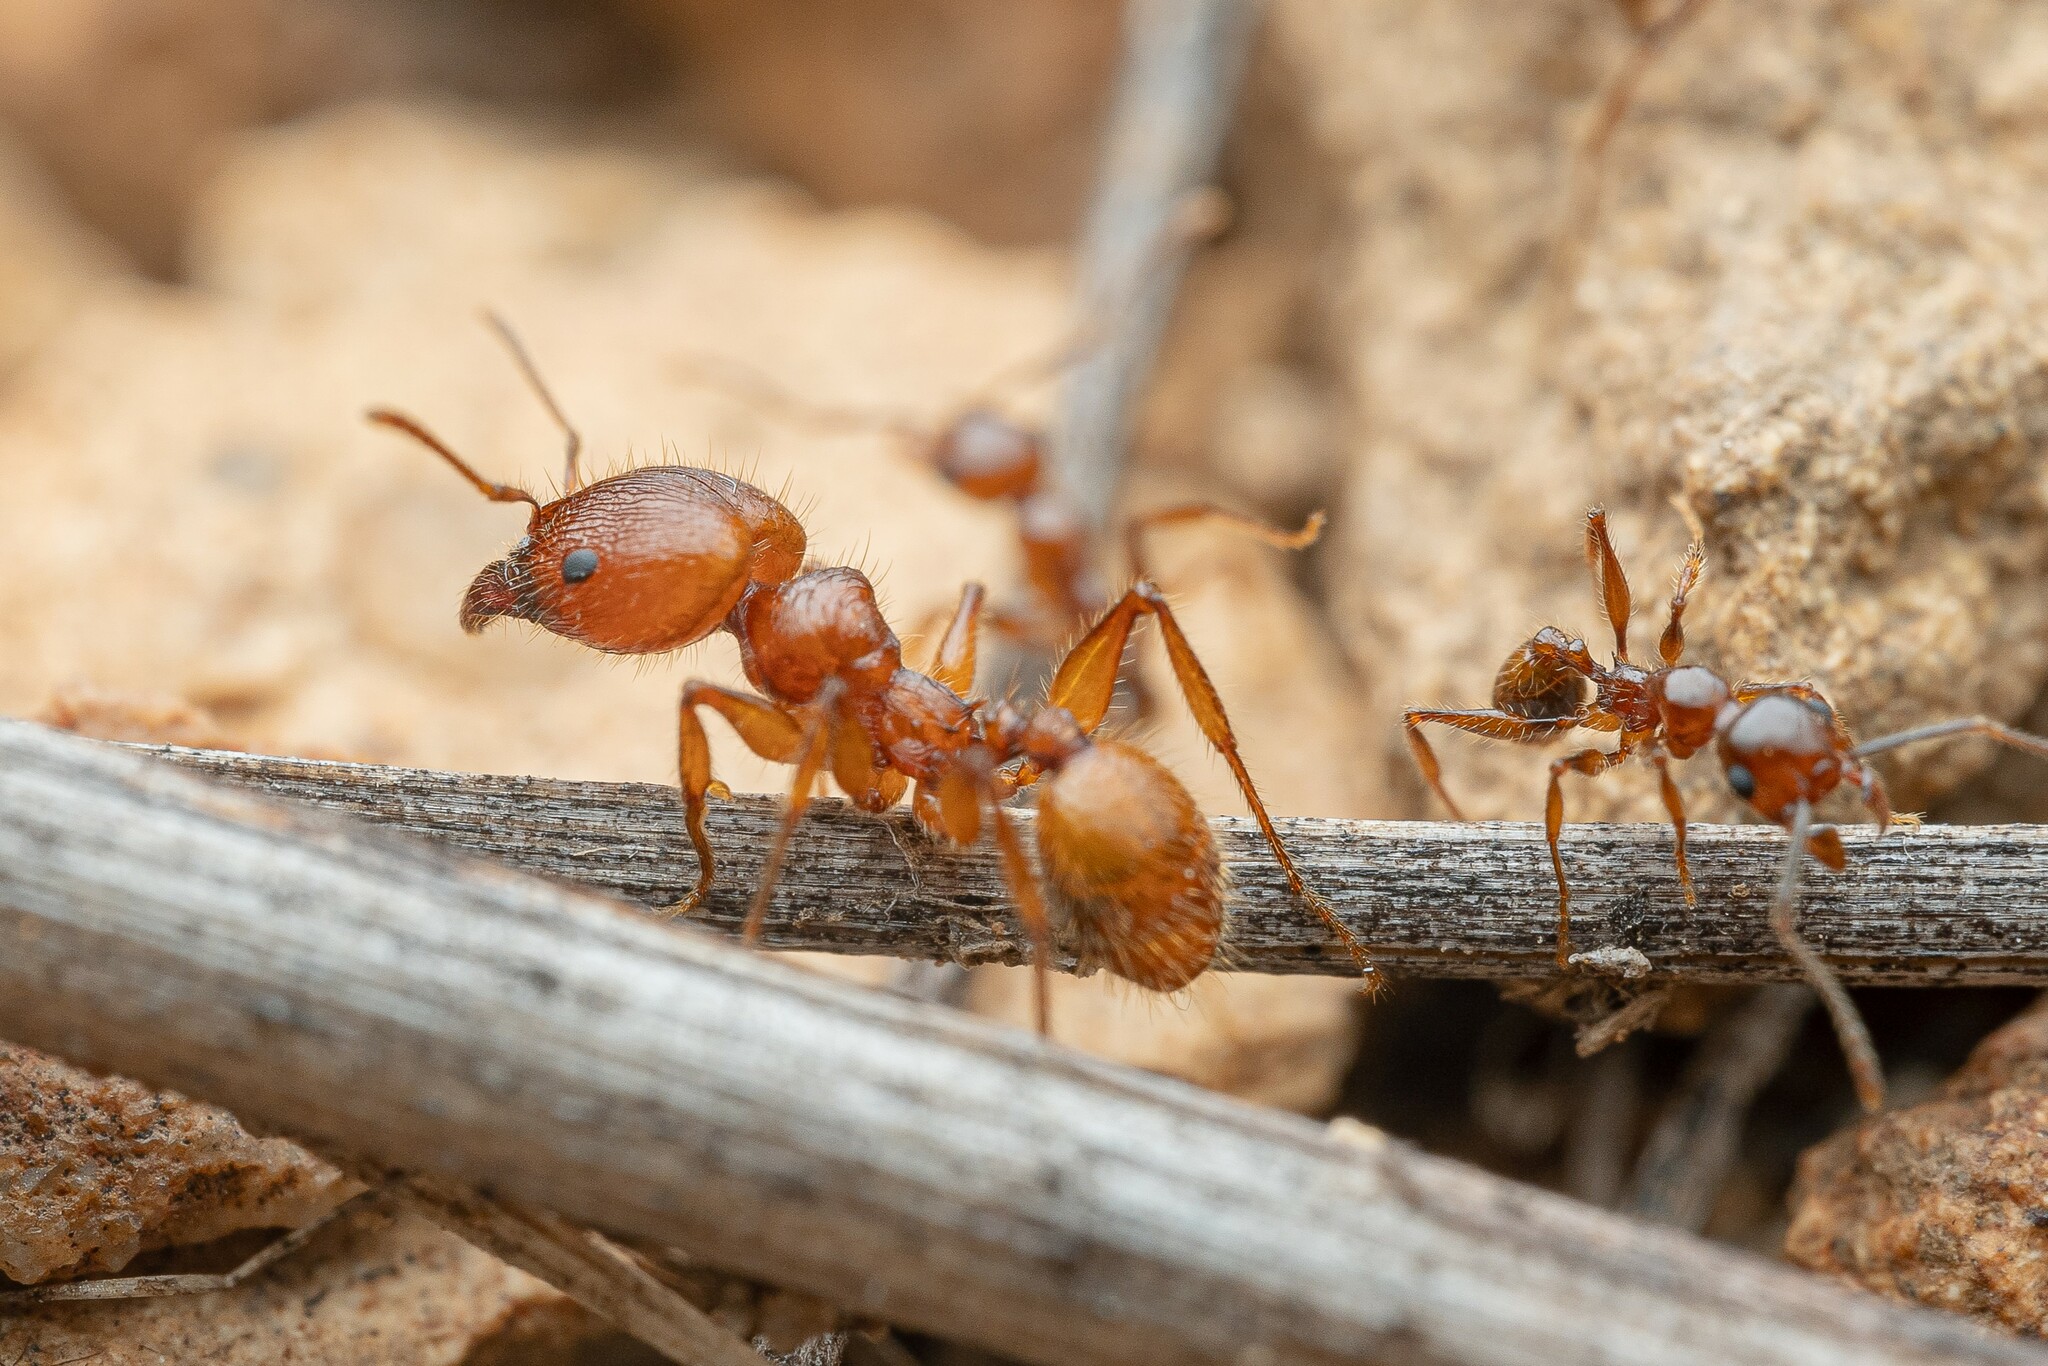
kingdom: Animalia
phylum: Arthropoda
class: Insecta
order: Hymenoptera
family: Formicidae
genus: Pheidole
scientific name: Pheidole titanis
